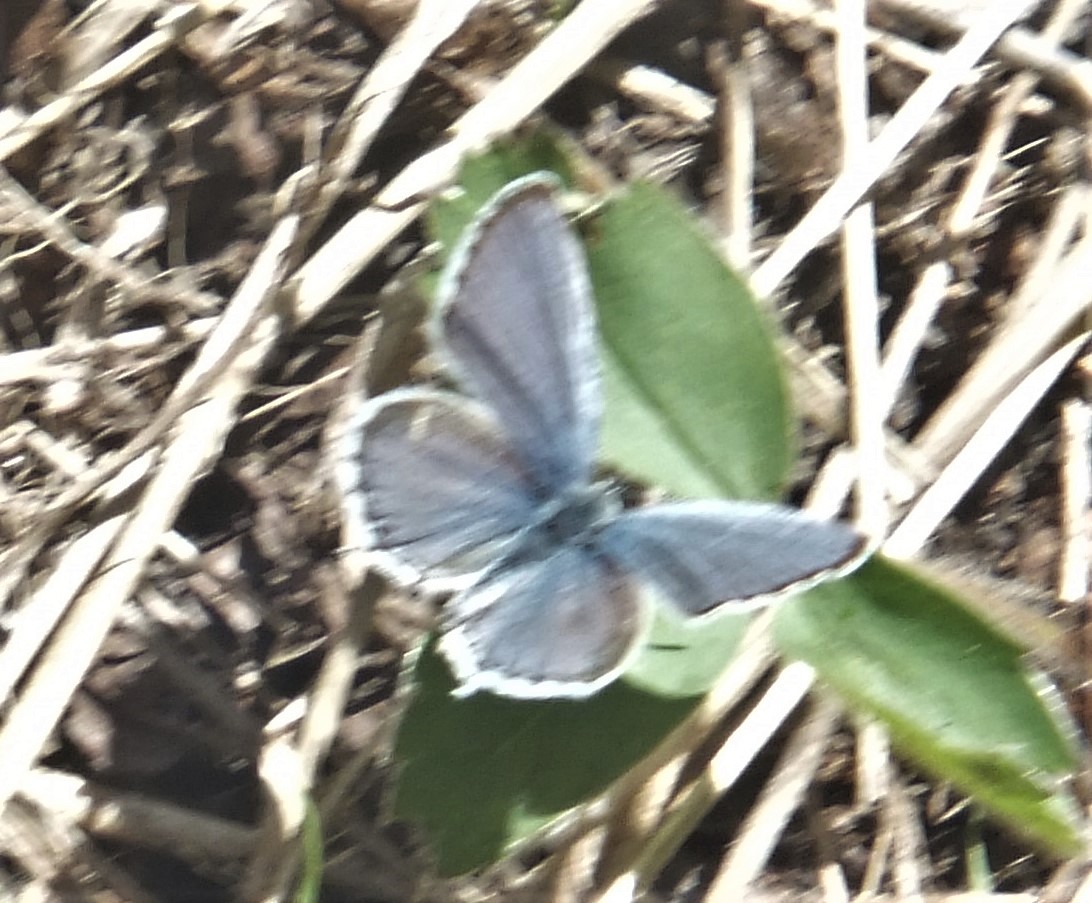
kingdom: Animalia
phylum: Arthropoda
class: Insecta
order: Lepidoptera
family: Lycaenidae
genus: Elkalyce
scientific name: Elkalyce amyntula
